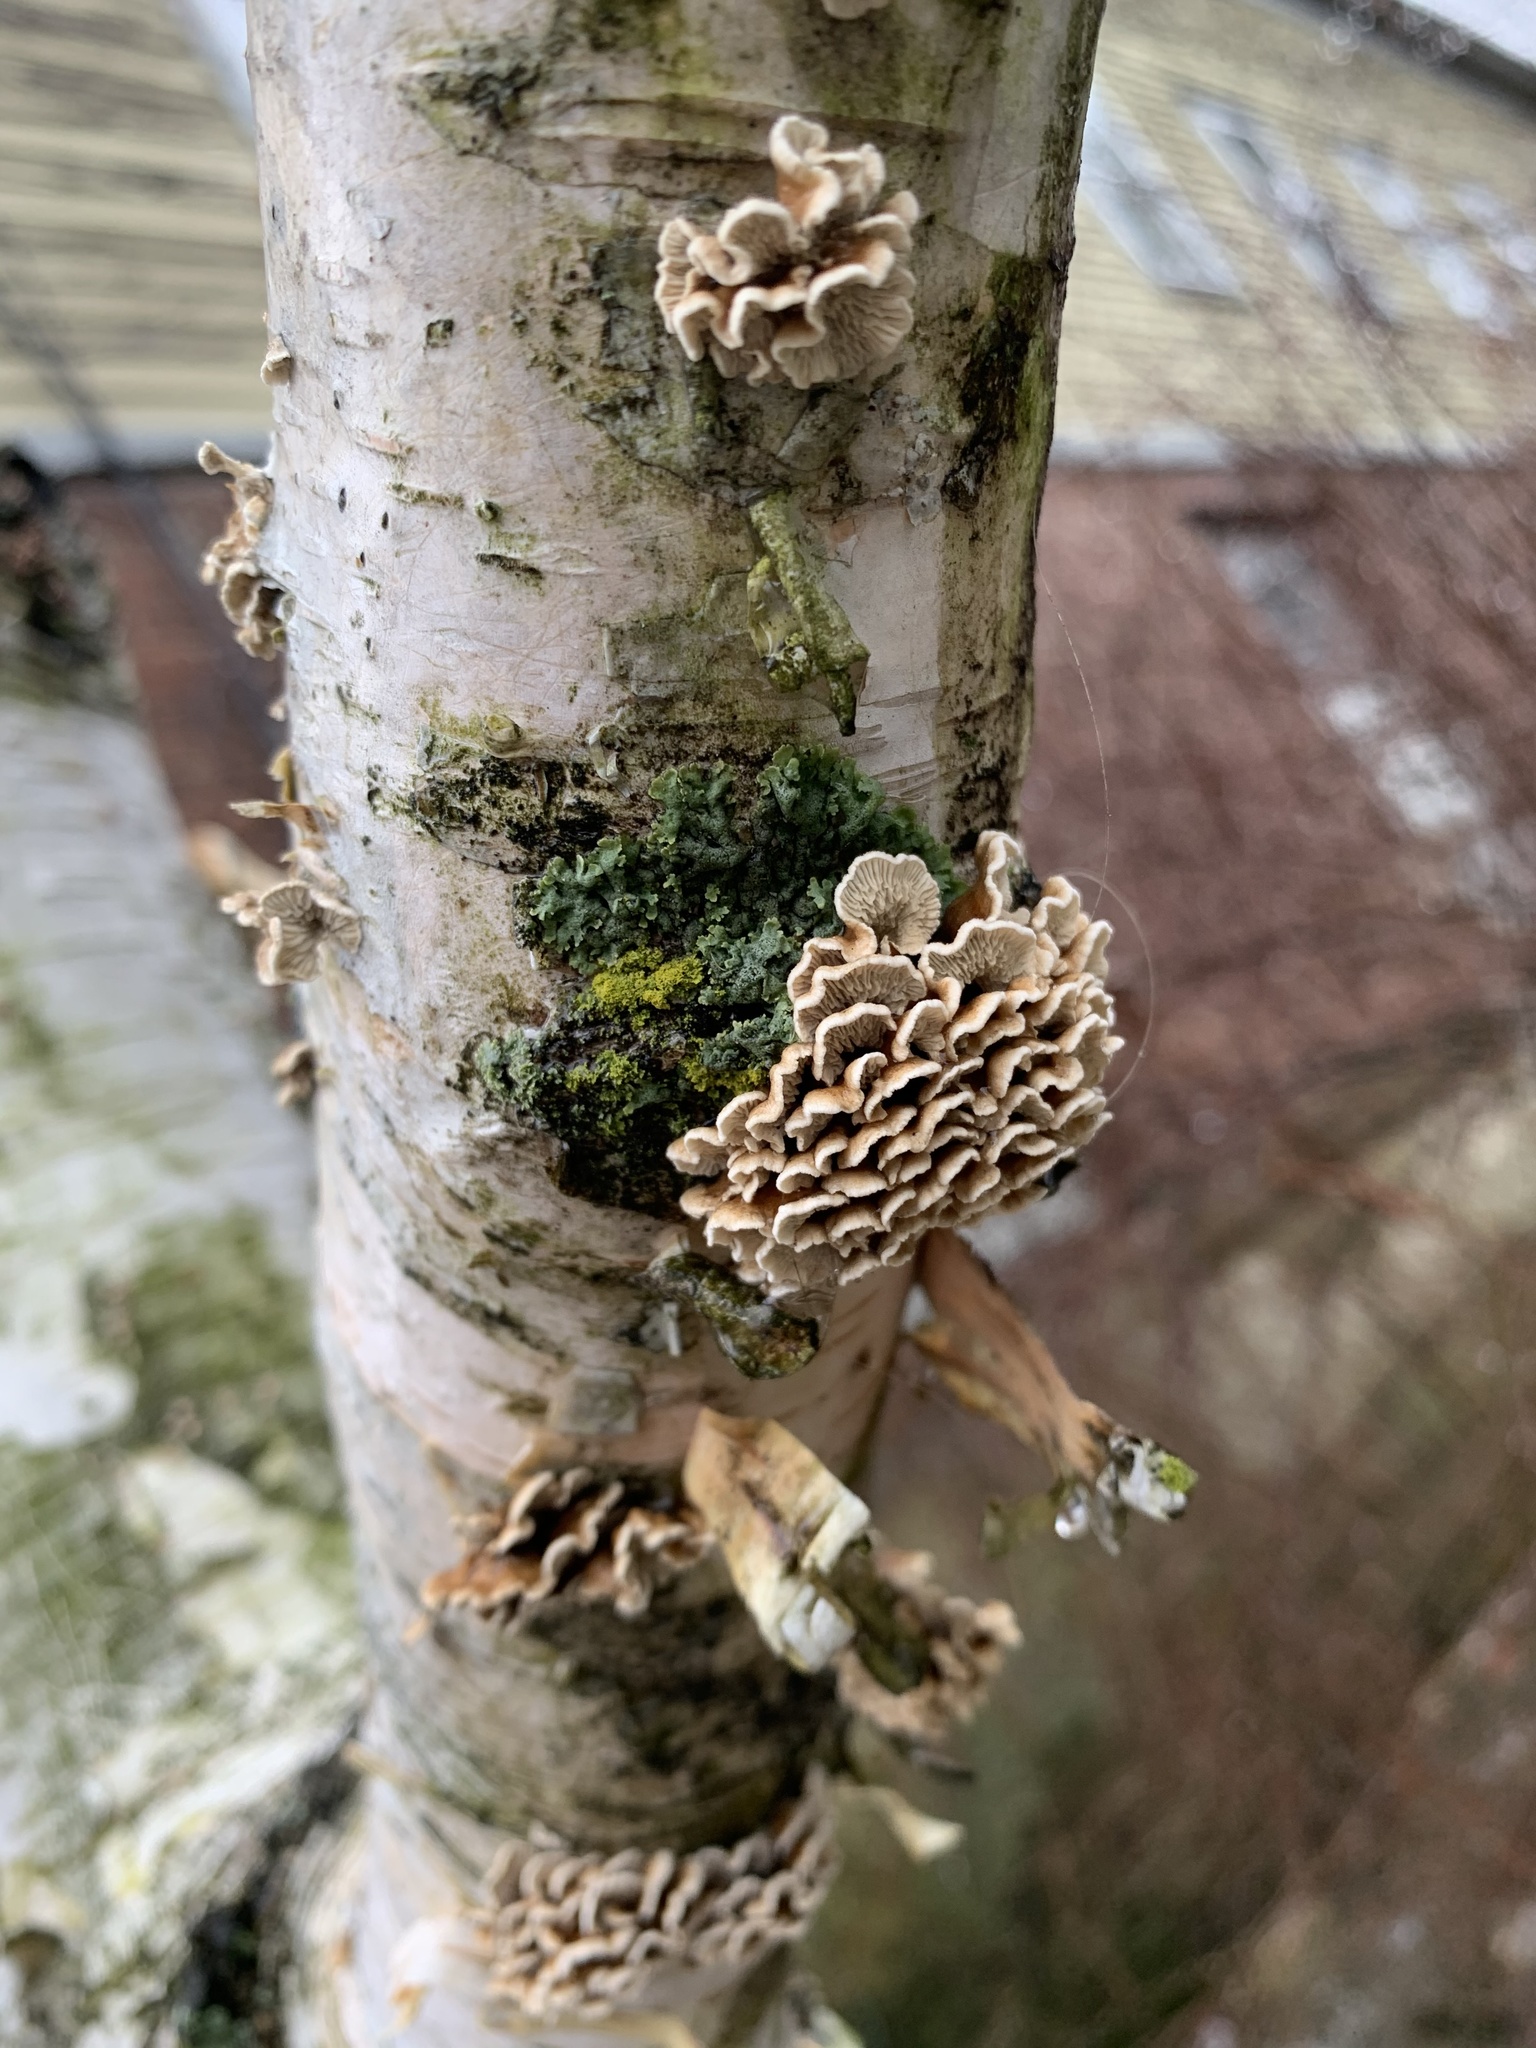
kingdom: Fungi
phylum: Basidiomycota
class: Agaricomycetes
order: Amylocorticiales
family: Amylocorticiaceae
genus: Plicaturopsis
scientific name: Plicaturopsis crispa
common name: Crimped gill
